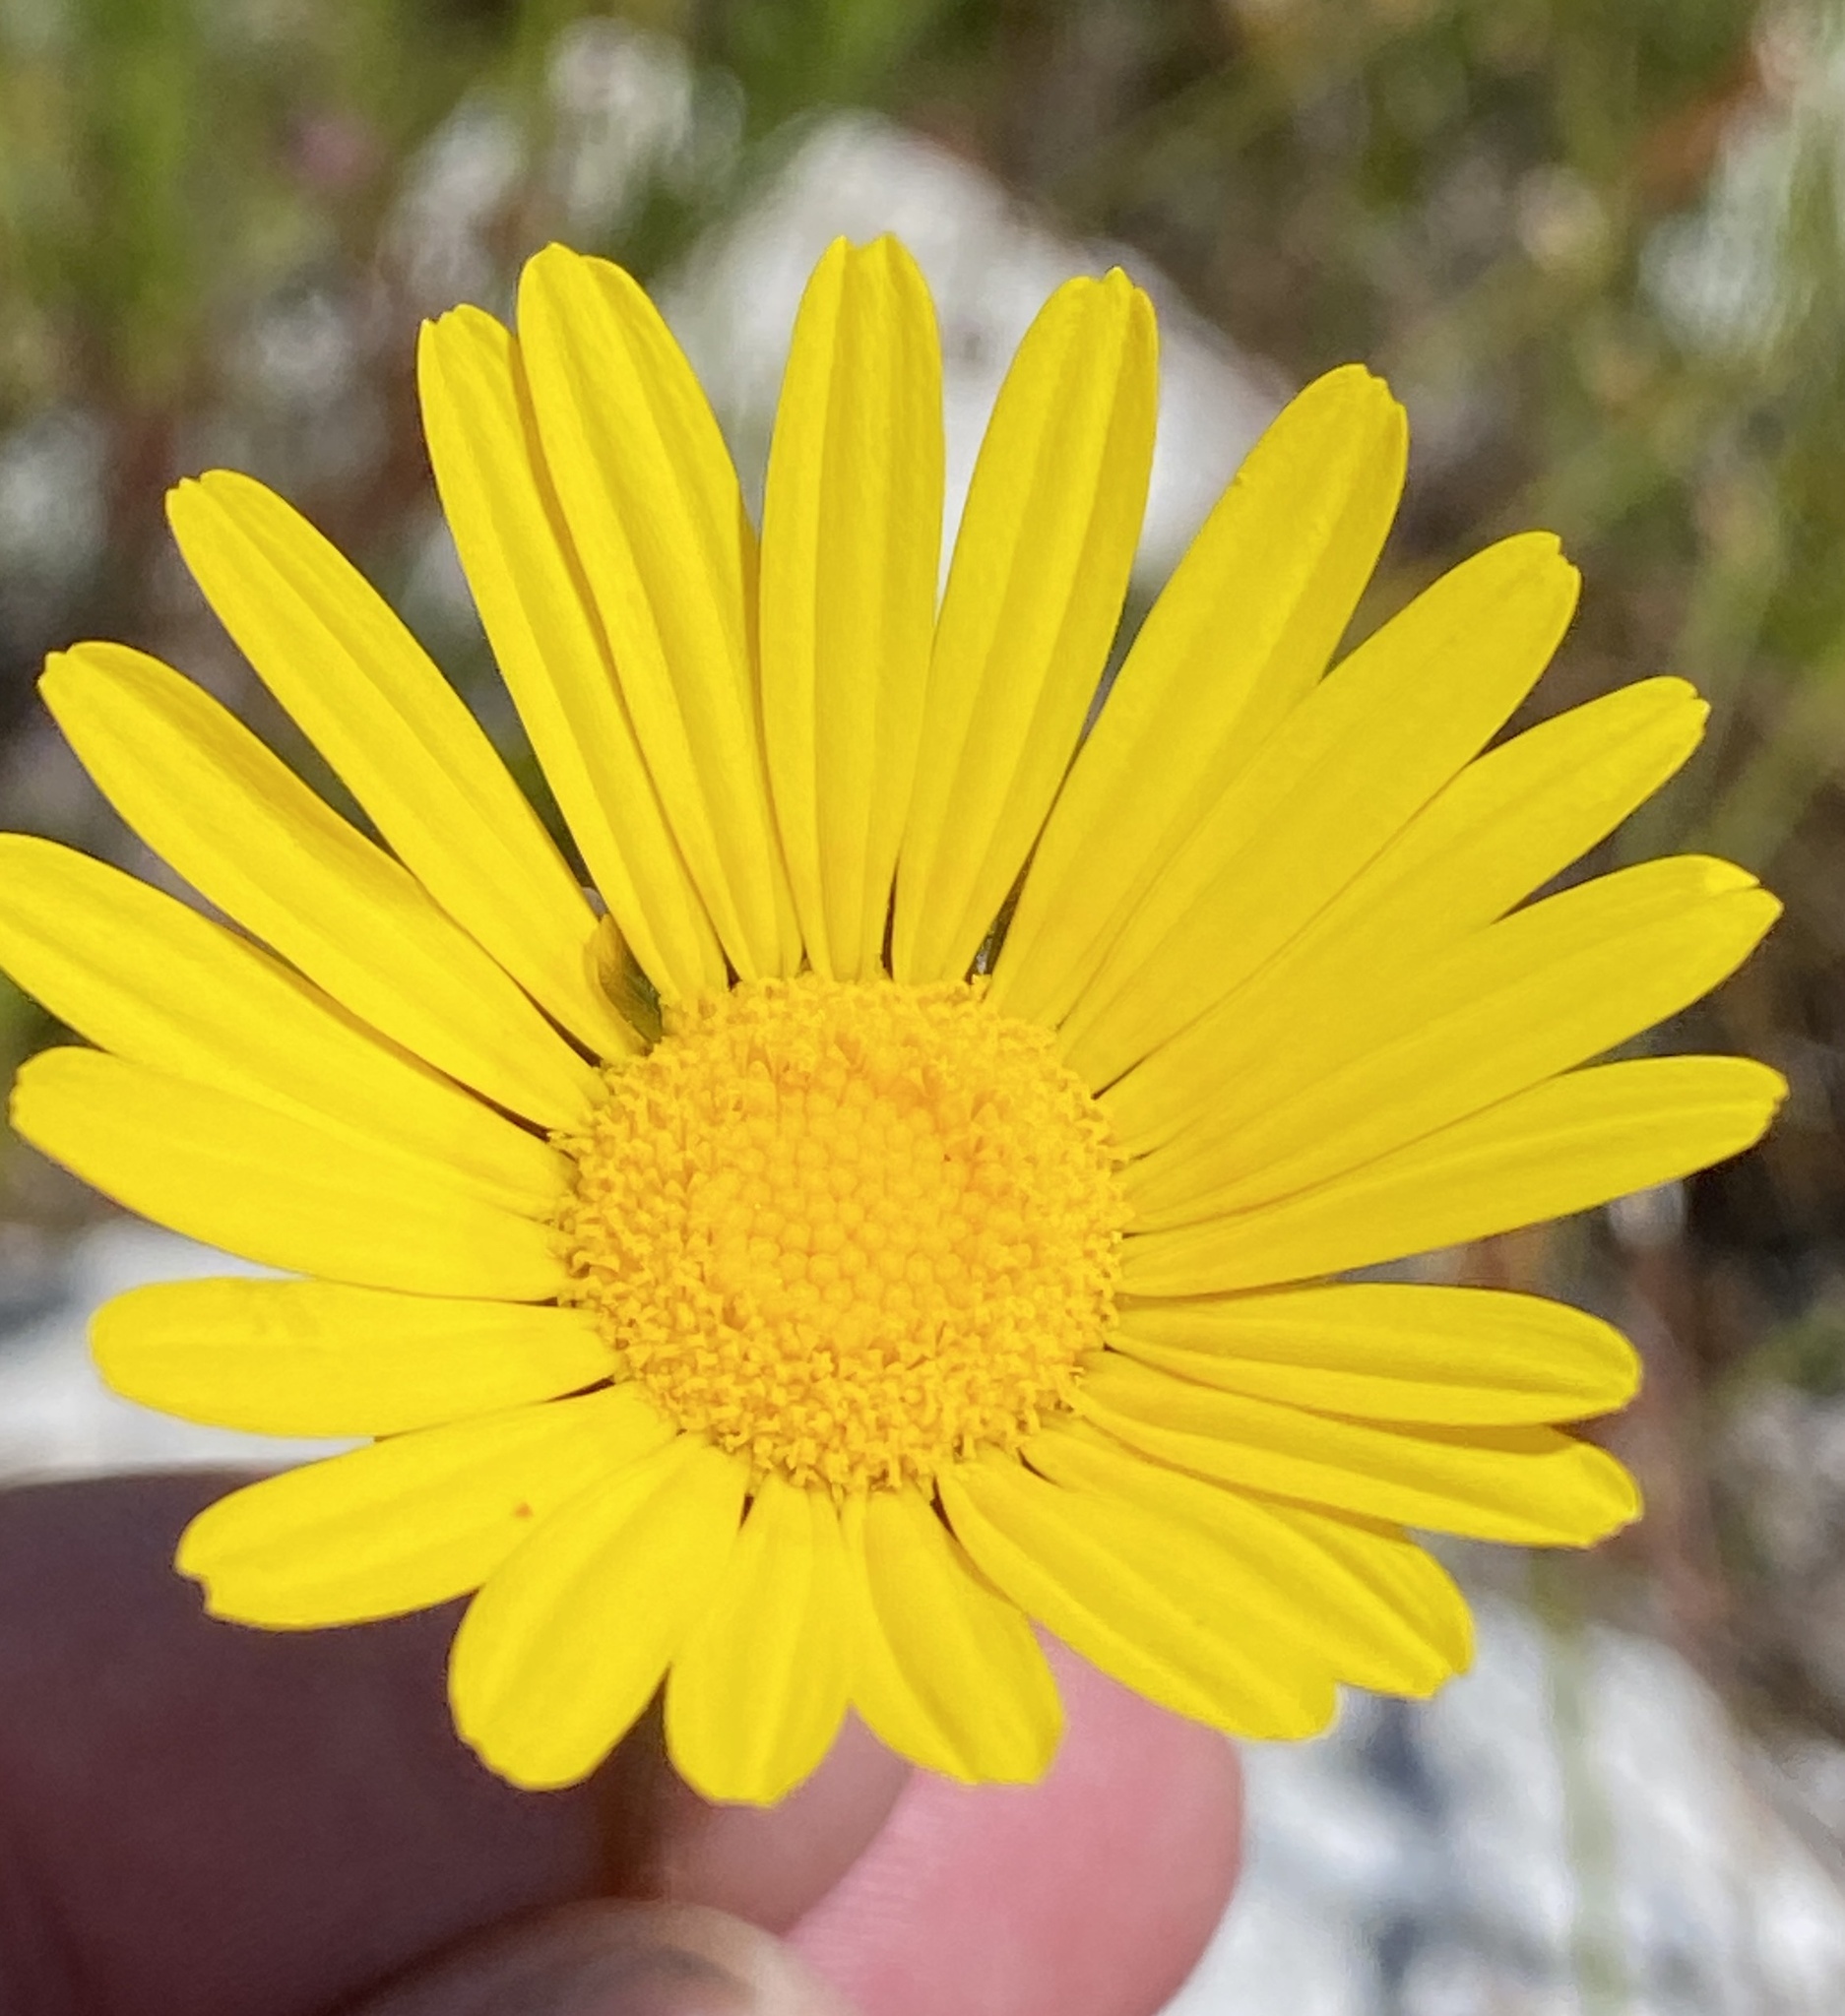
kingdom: Plantae
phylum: Tracheophyta
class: Magnoliopsida
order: Asterales
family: Asteraceae
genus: Ursinia
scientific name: Ursinia paleacea
